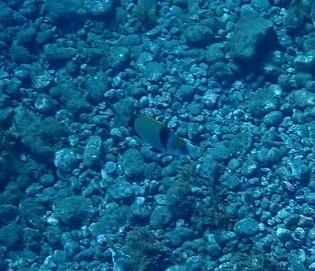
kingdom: Animalia
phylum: Chordata
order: Perciformes
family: Sparidae
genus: Diplodus
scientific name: Diplodus vulgaris
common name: Common two-banded seabream
